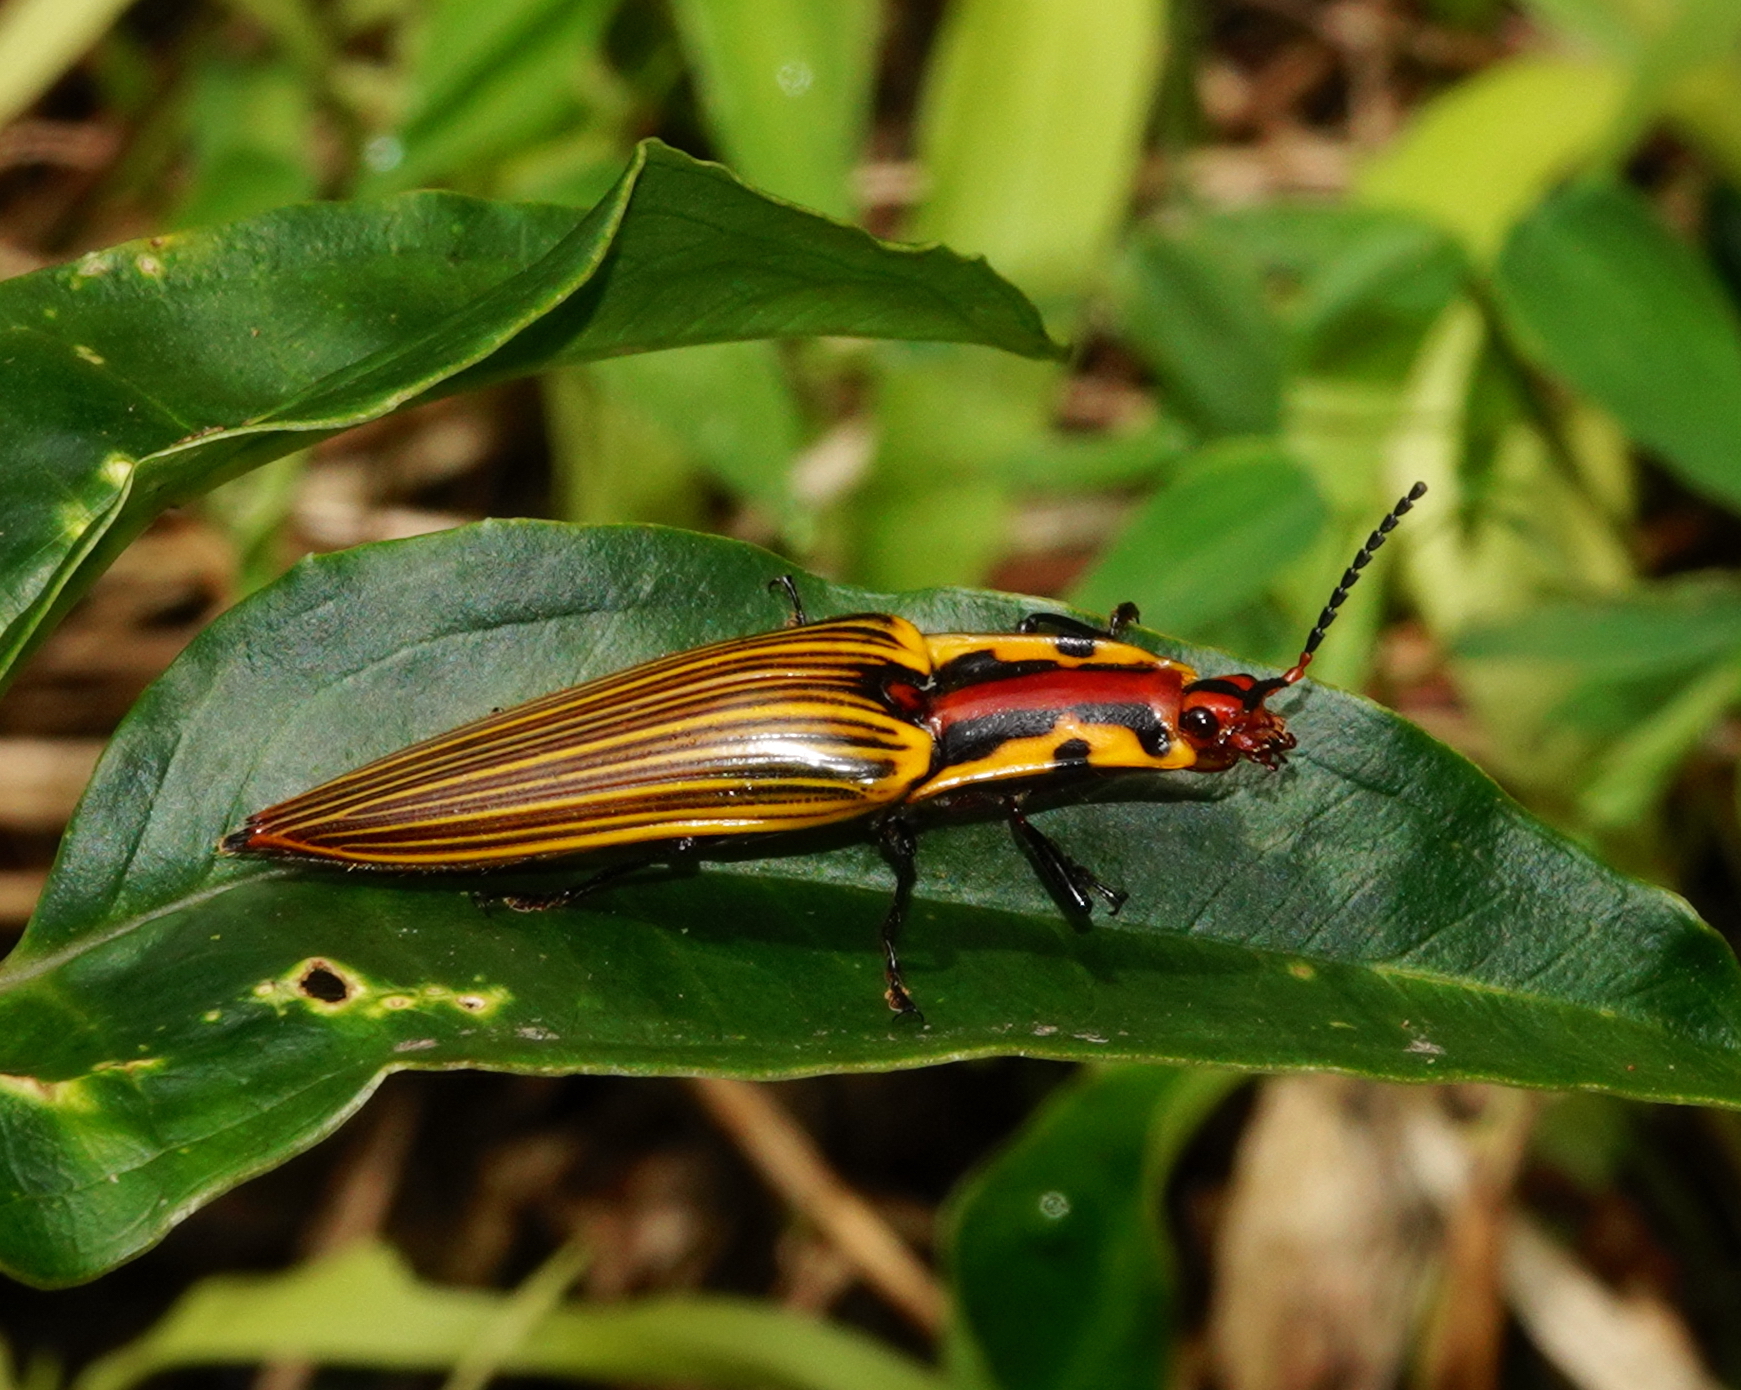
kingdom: Animalia
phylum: Arthropoda
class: Insecta
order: Coleoptera
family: Elateridae
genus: Semiotus
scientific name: Semiotus
